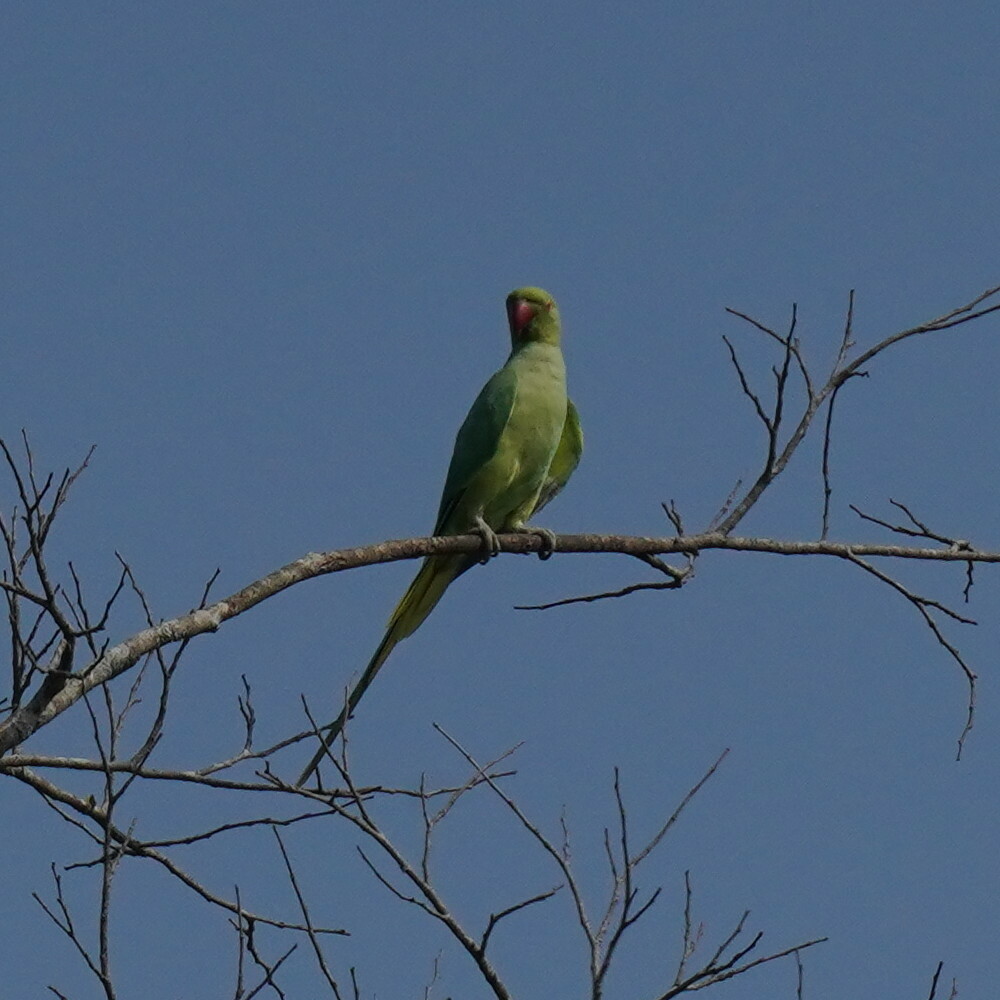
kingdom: Animalia
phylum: Chordata
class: Aves
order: Psittaciformes
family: Psittacidae
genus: Psittacula
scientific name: Psittacula krameri
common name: Rose-ringed parakeet
